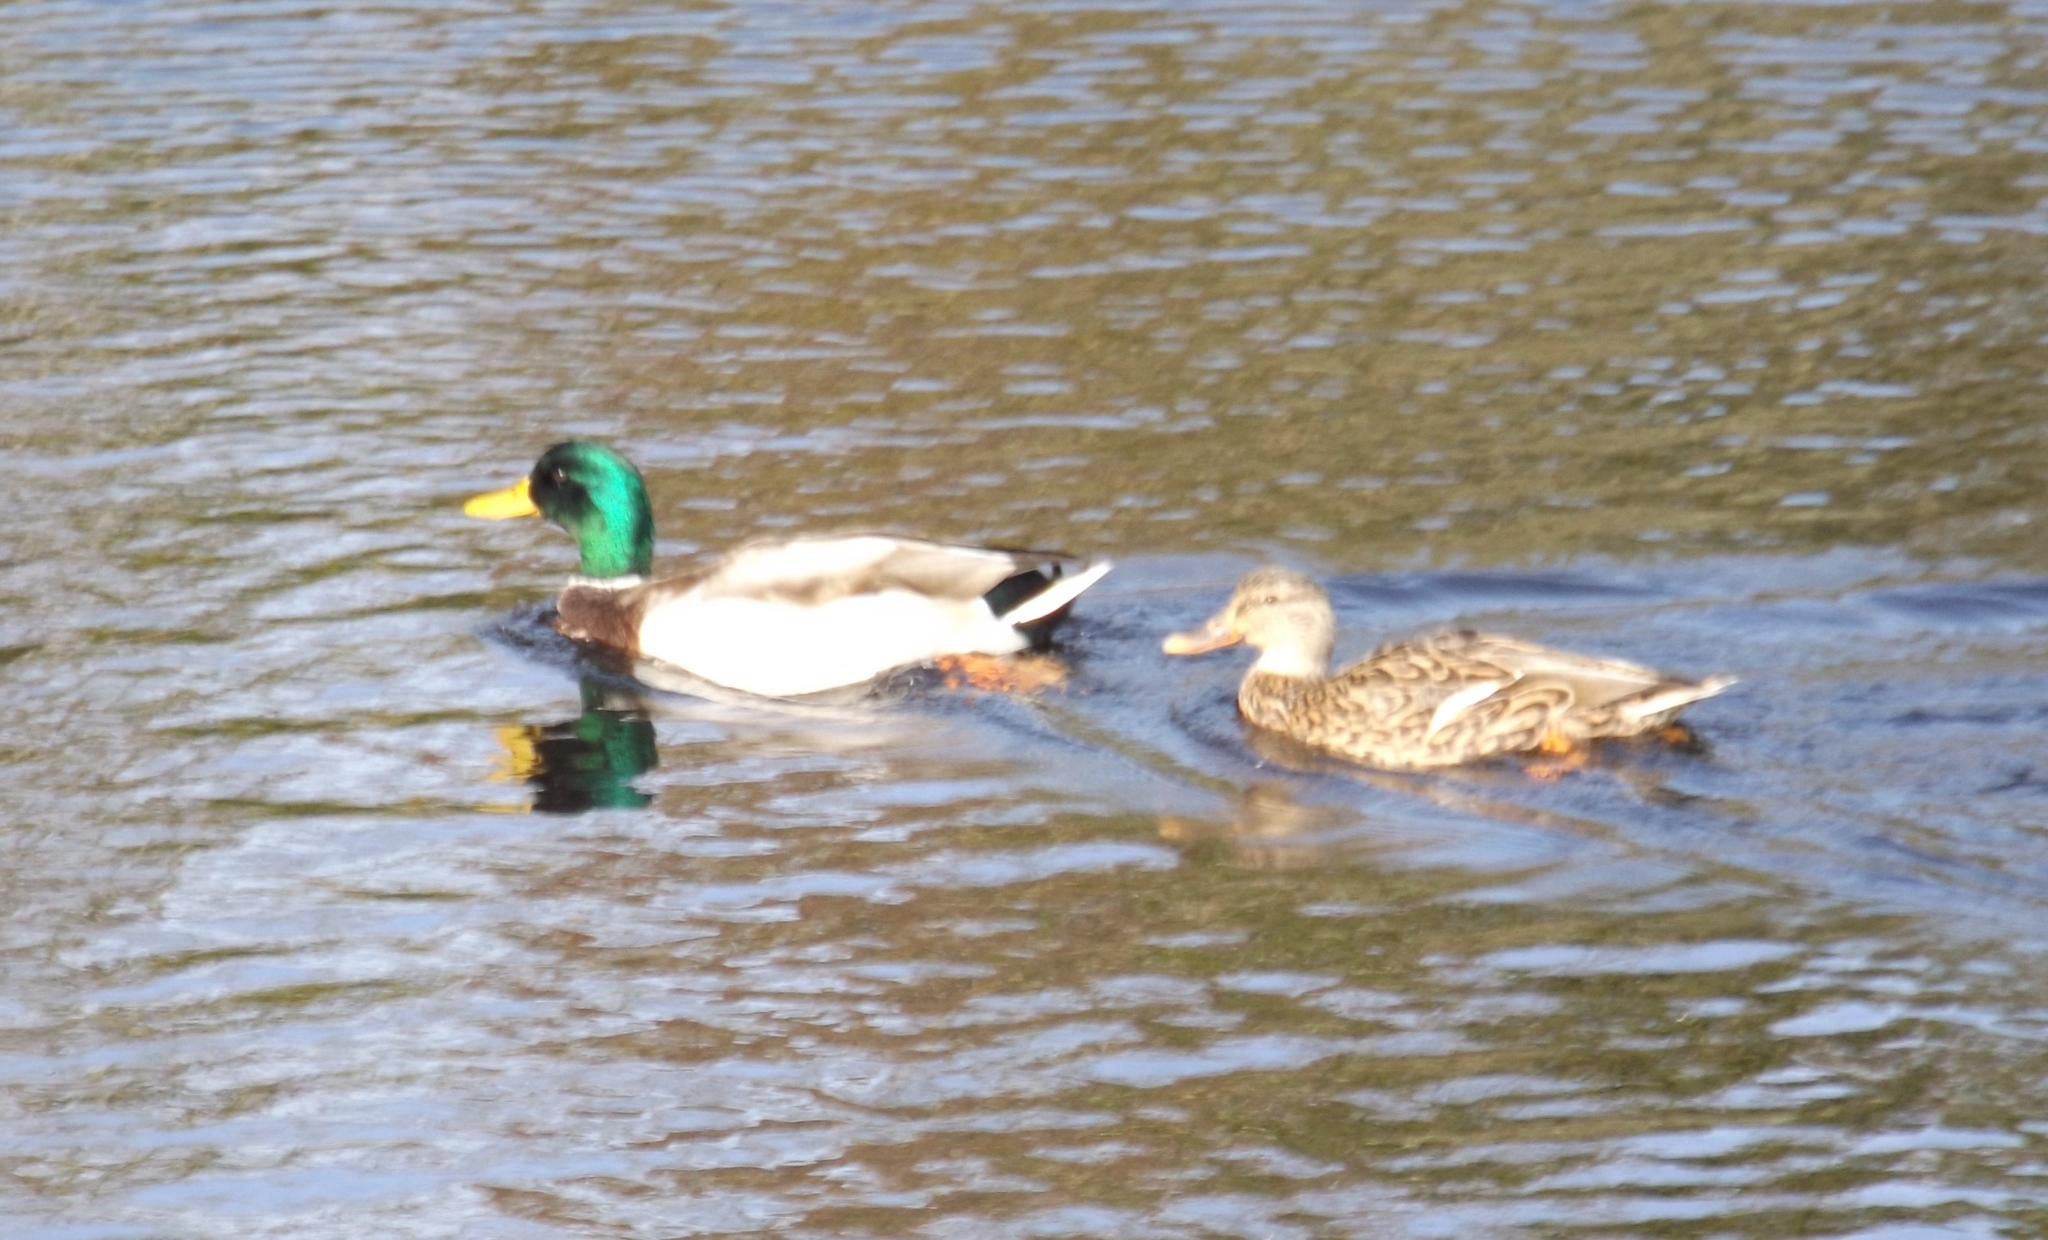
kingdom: Animalia
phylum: Chordata
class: Aves
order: Anseriformes
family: Anatidae
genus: Anas
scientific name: Anas platyrhynchos
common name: Mallard
